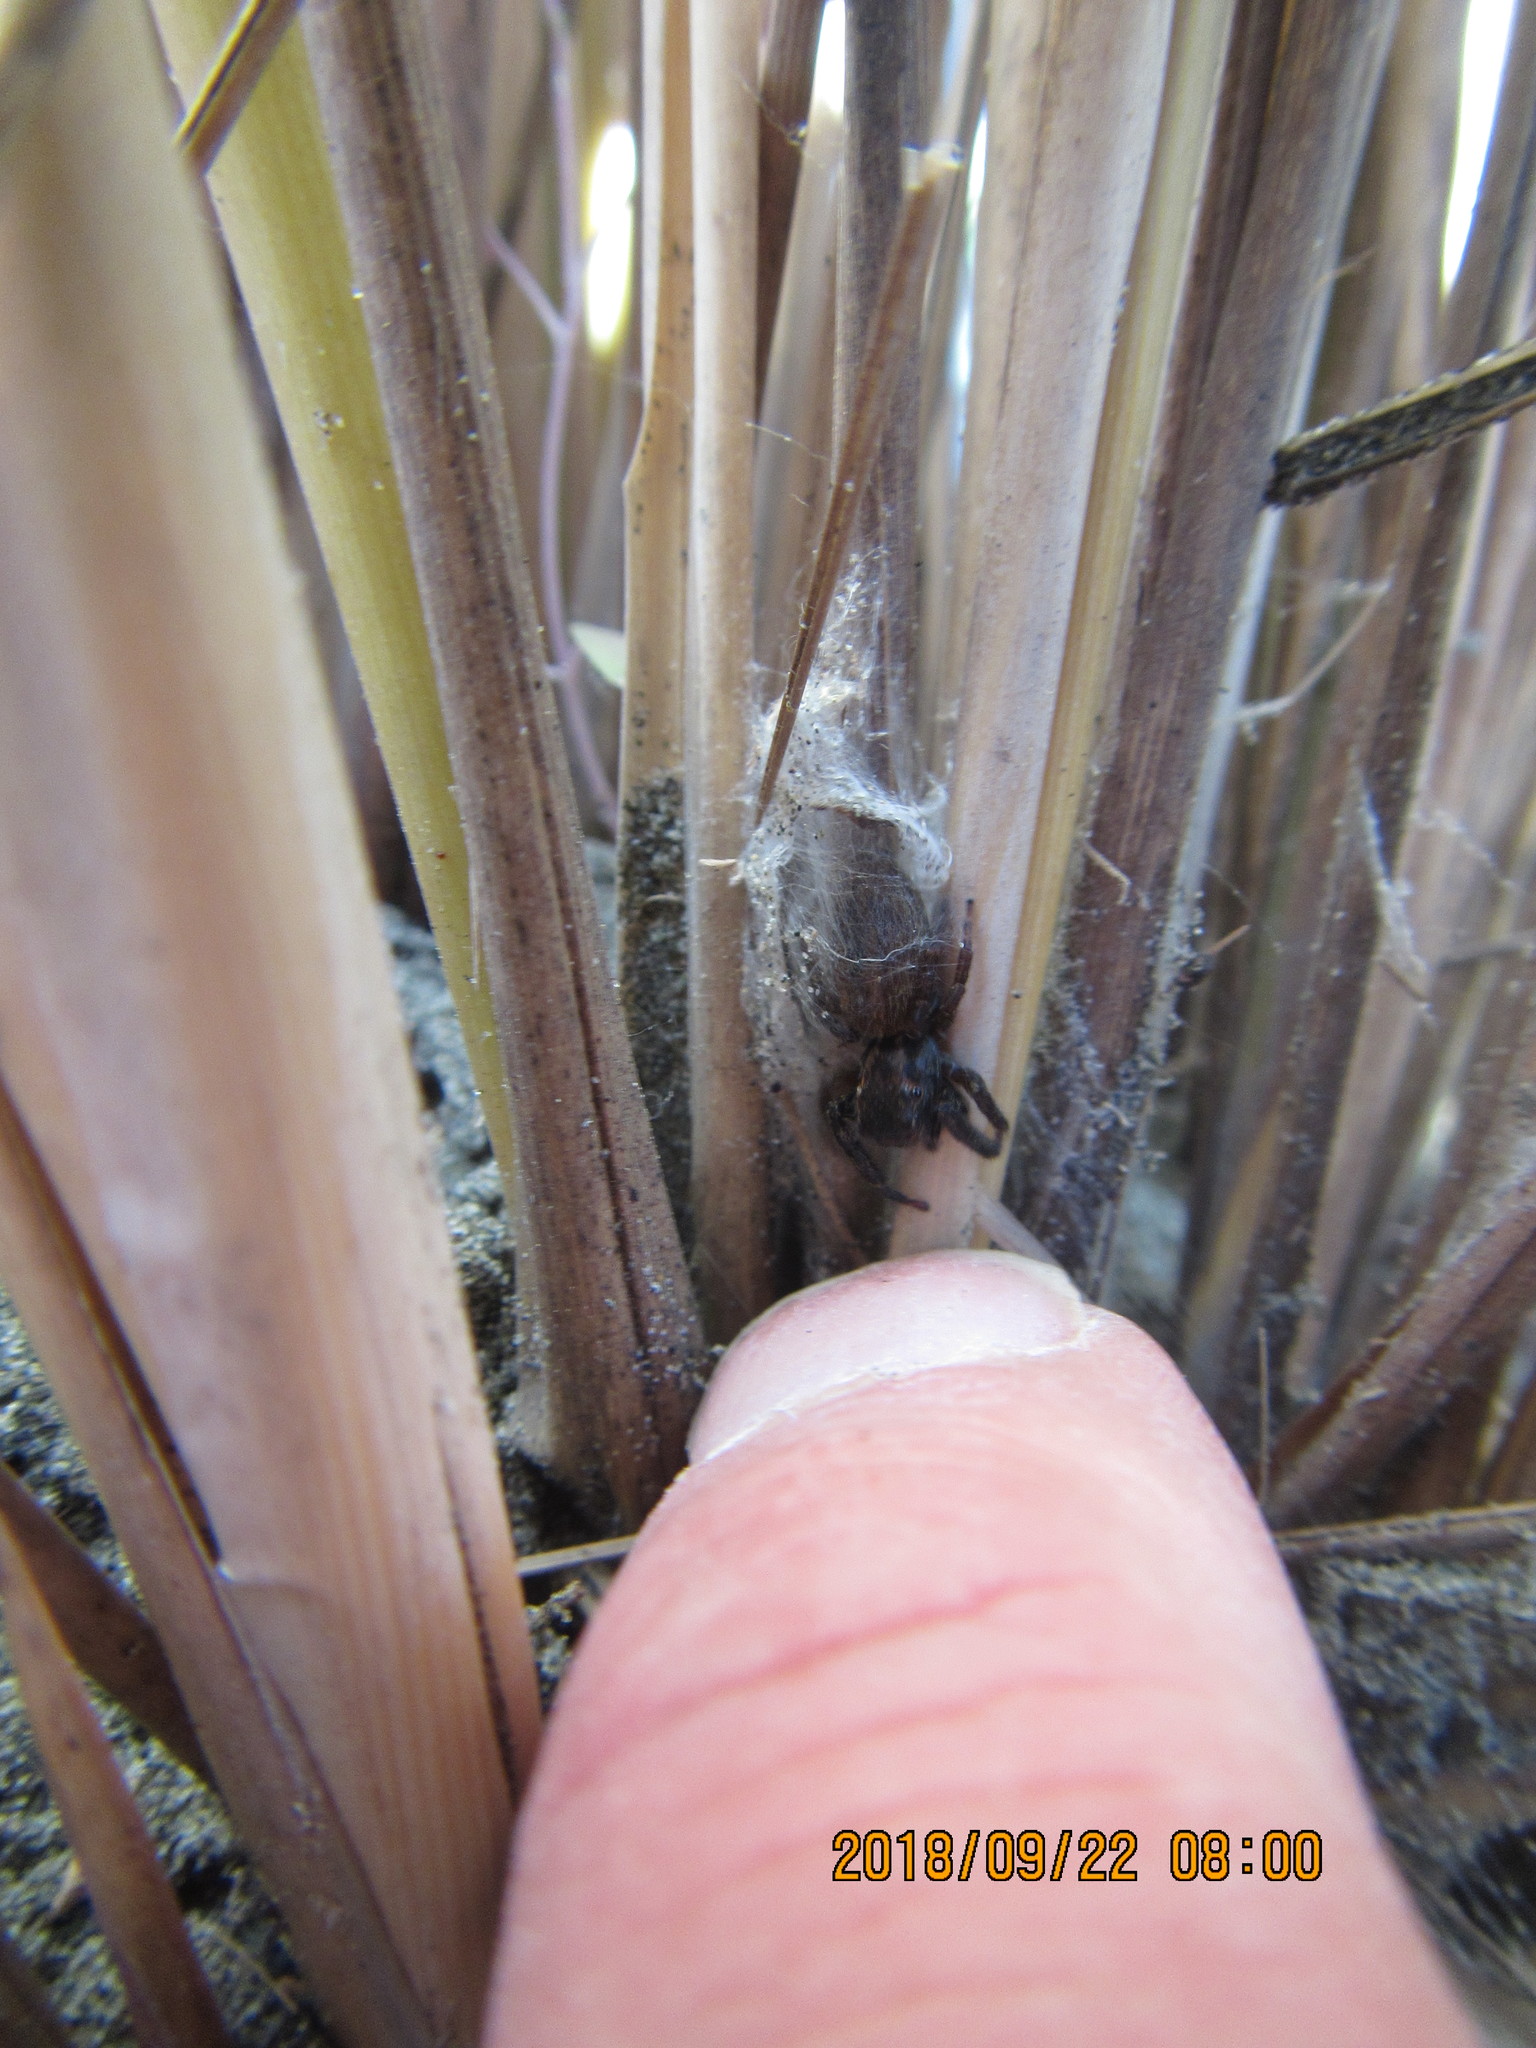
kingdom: Animalia
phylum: Arthropoda
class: Arachnida
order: Araneae
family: Salticidae
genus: Trite
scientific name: Trite auricoma
